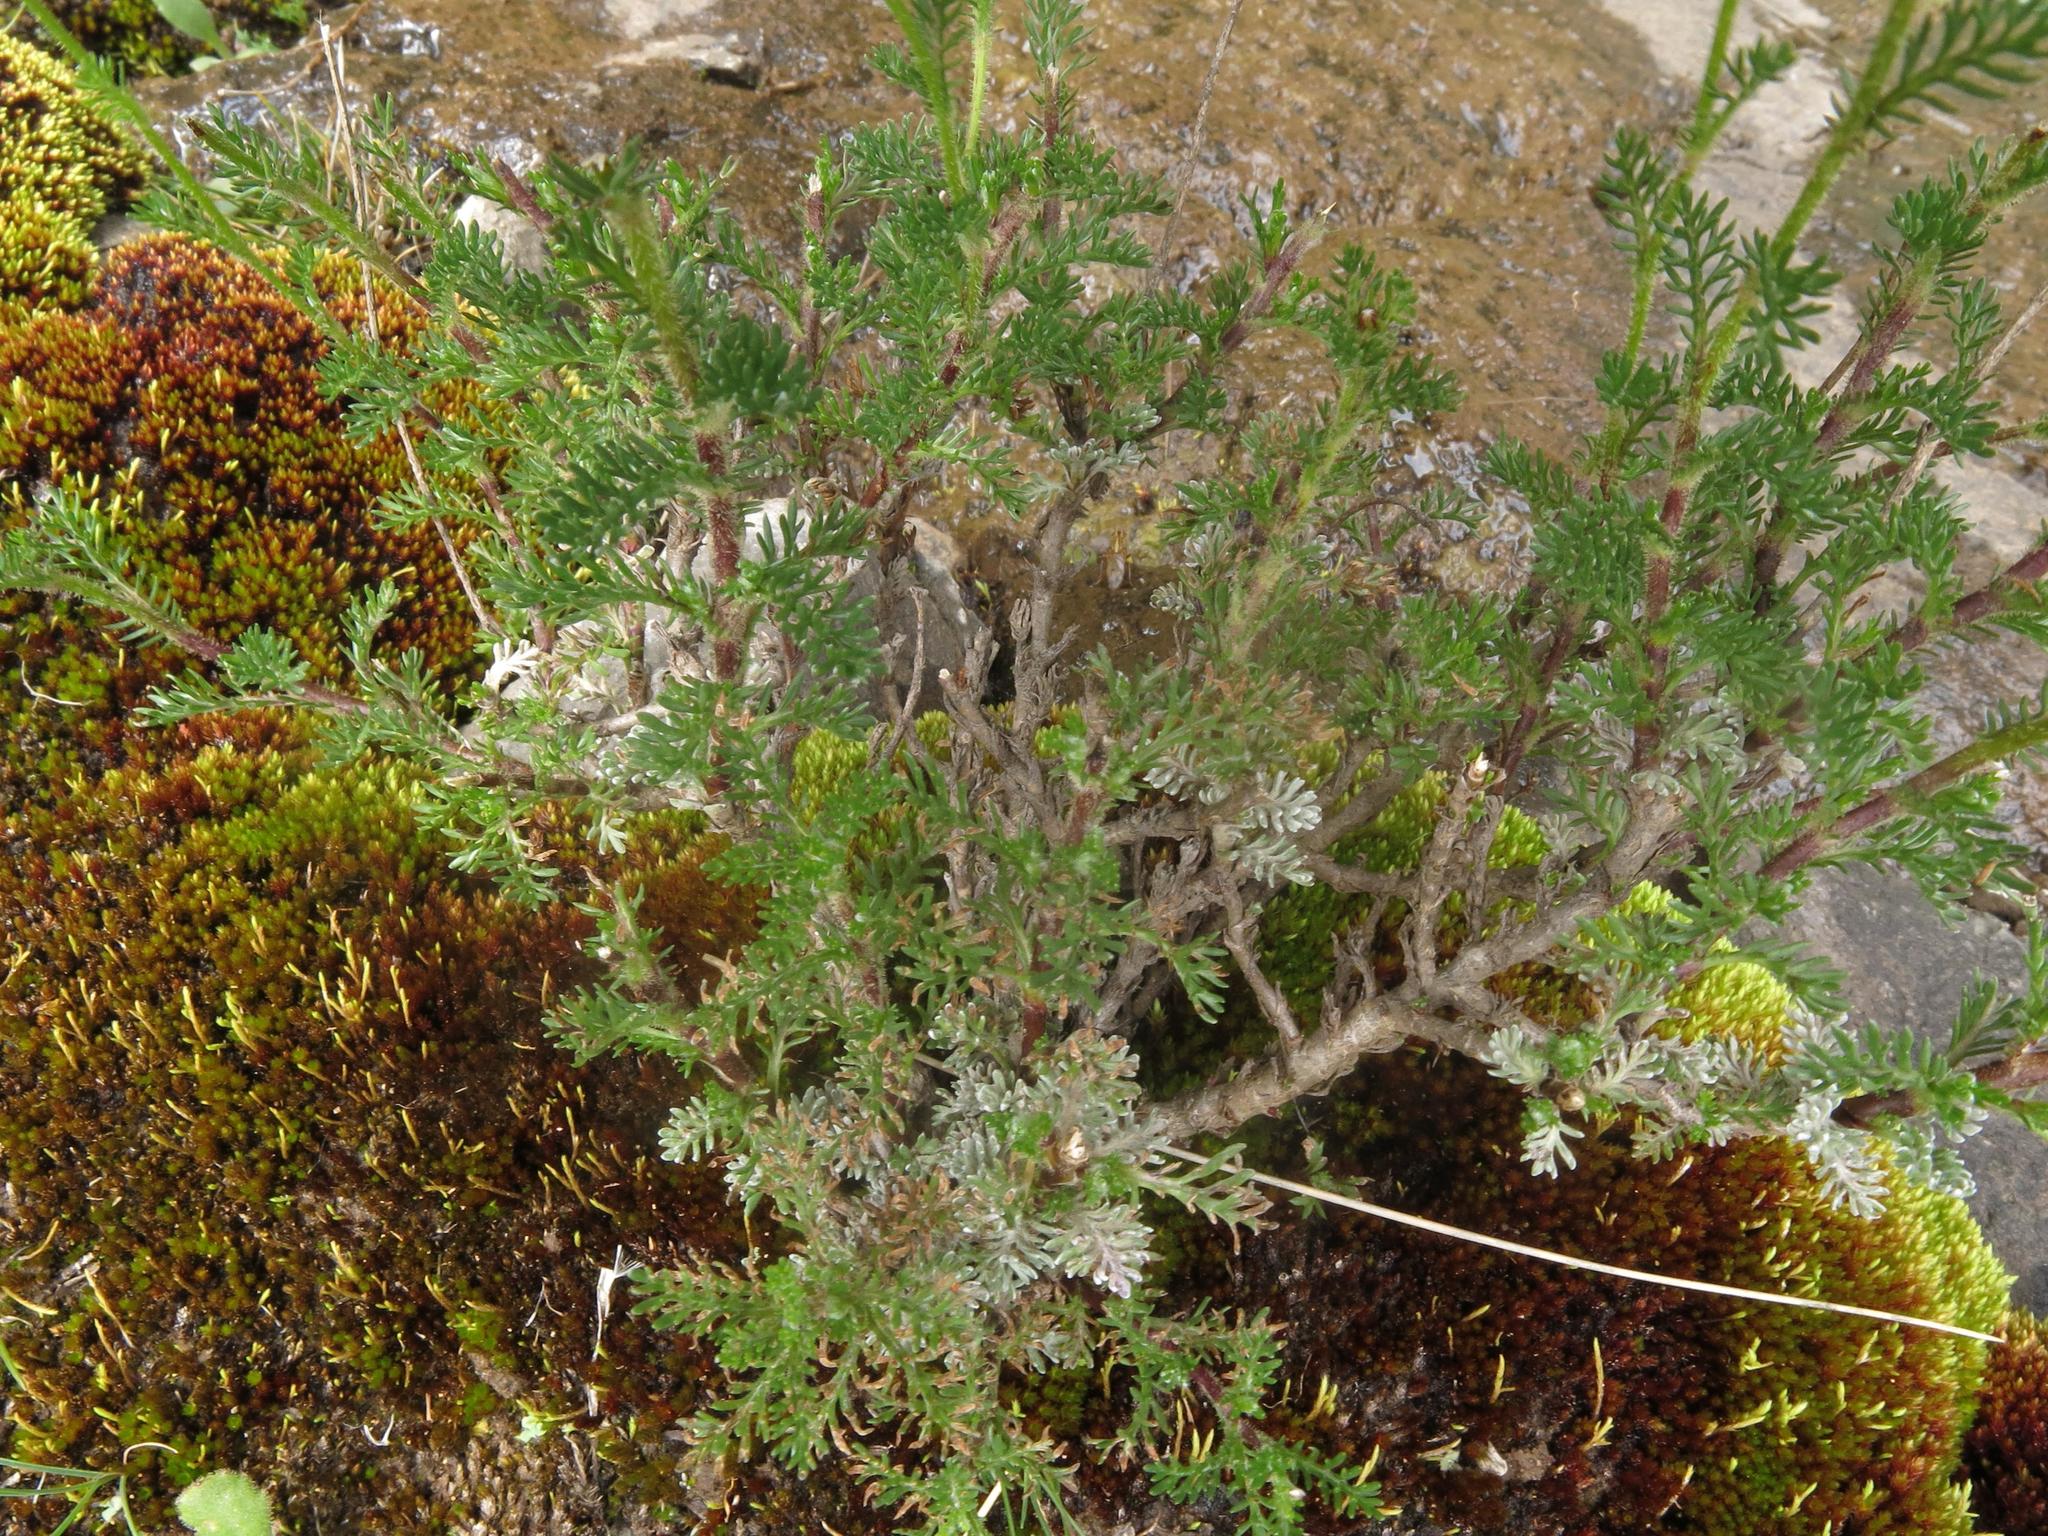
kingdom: Plantae
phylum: Tracheophyta
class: Magnoliopsida
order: Asterales
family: Asteraceae
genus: Senecio
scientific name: Senecio achilleifolius
